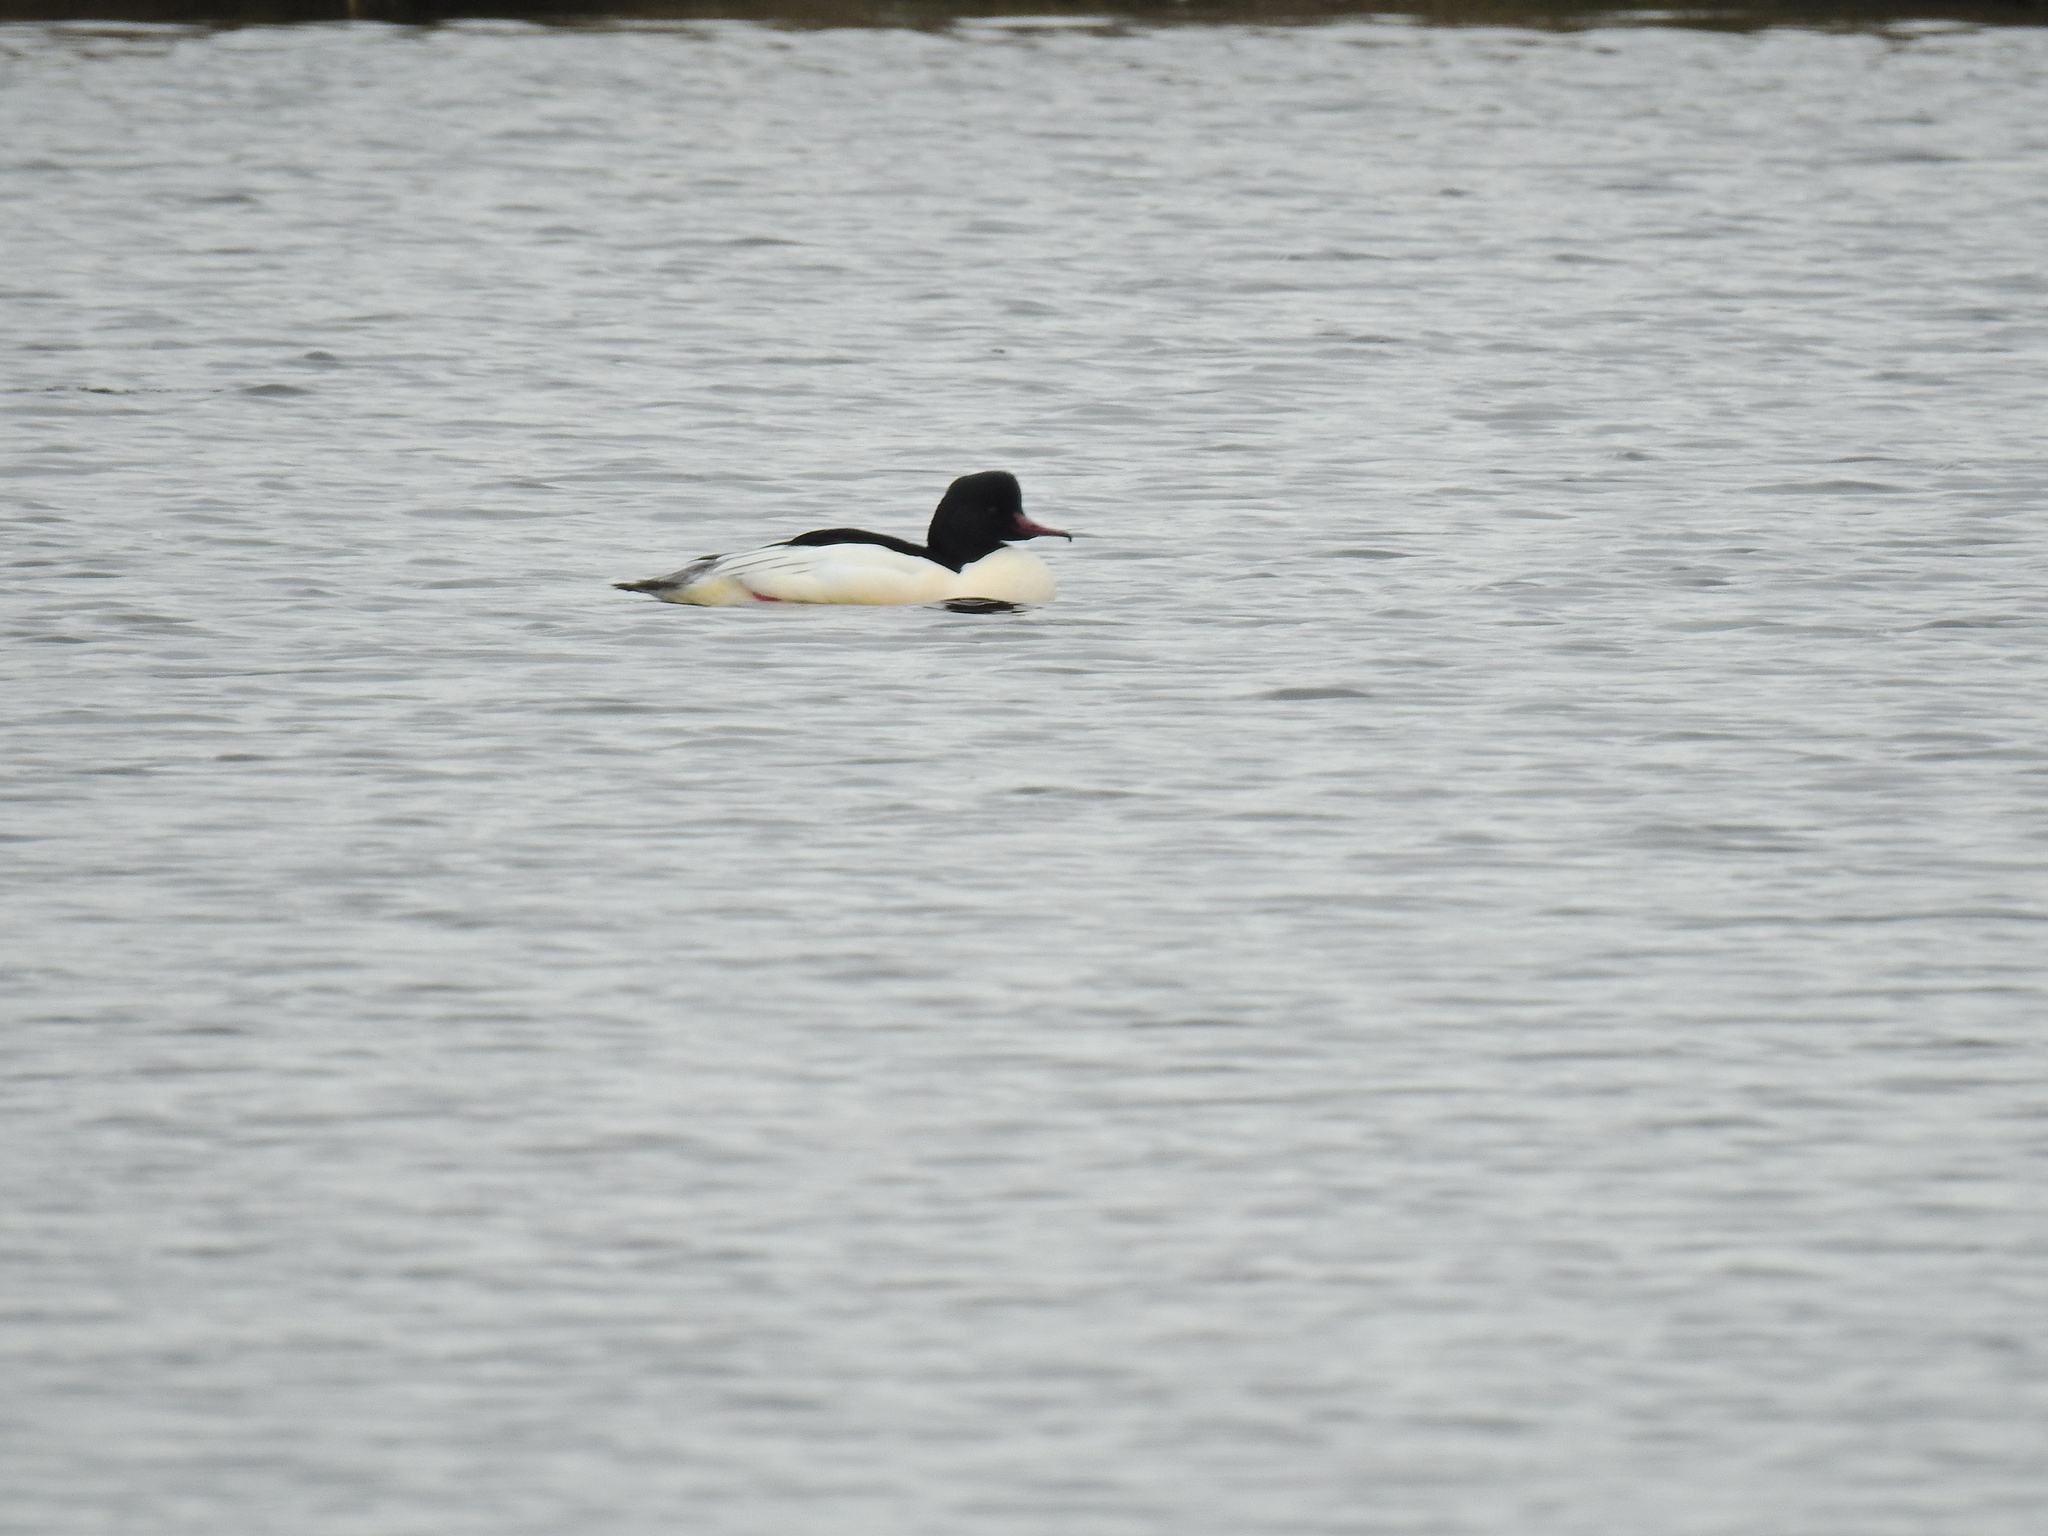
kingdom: Animalia
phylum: Chordata
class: Aves
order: Anseriformes
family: Anatidae
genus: Mergus
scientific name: Mergus merganser
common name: Common merganser
